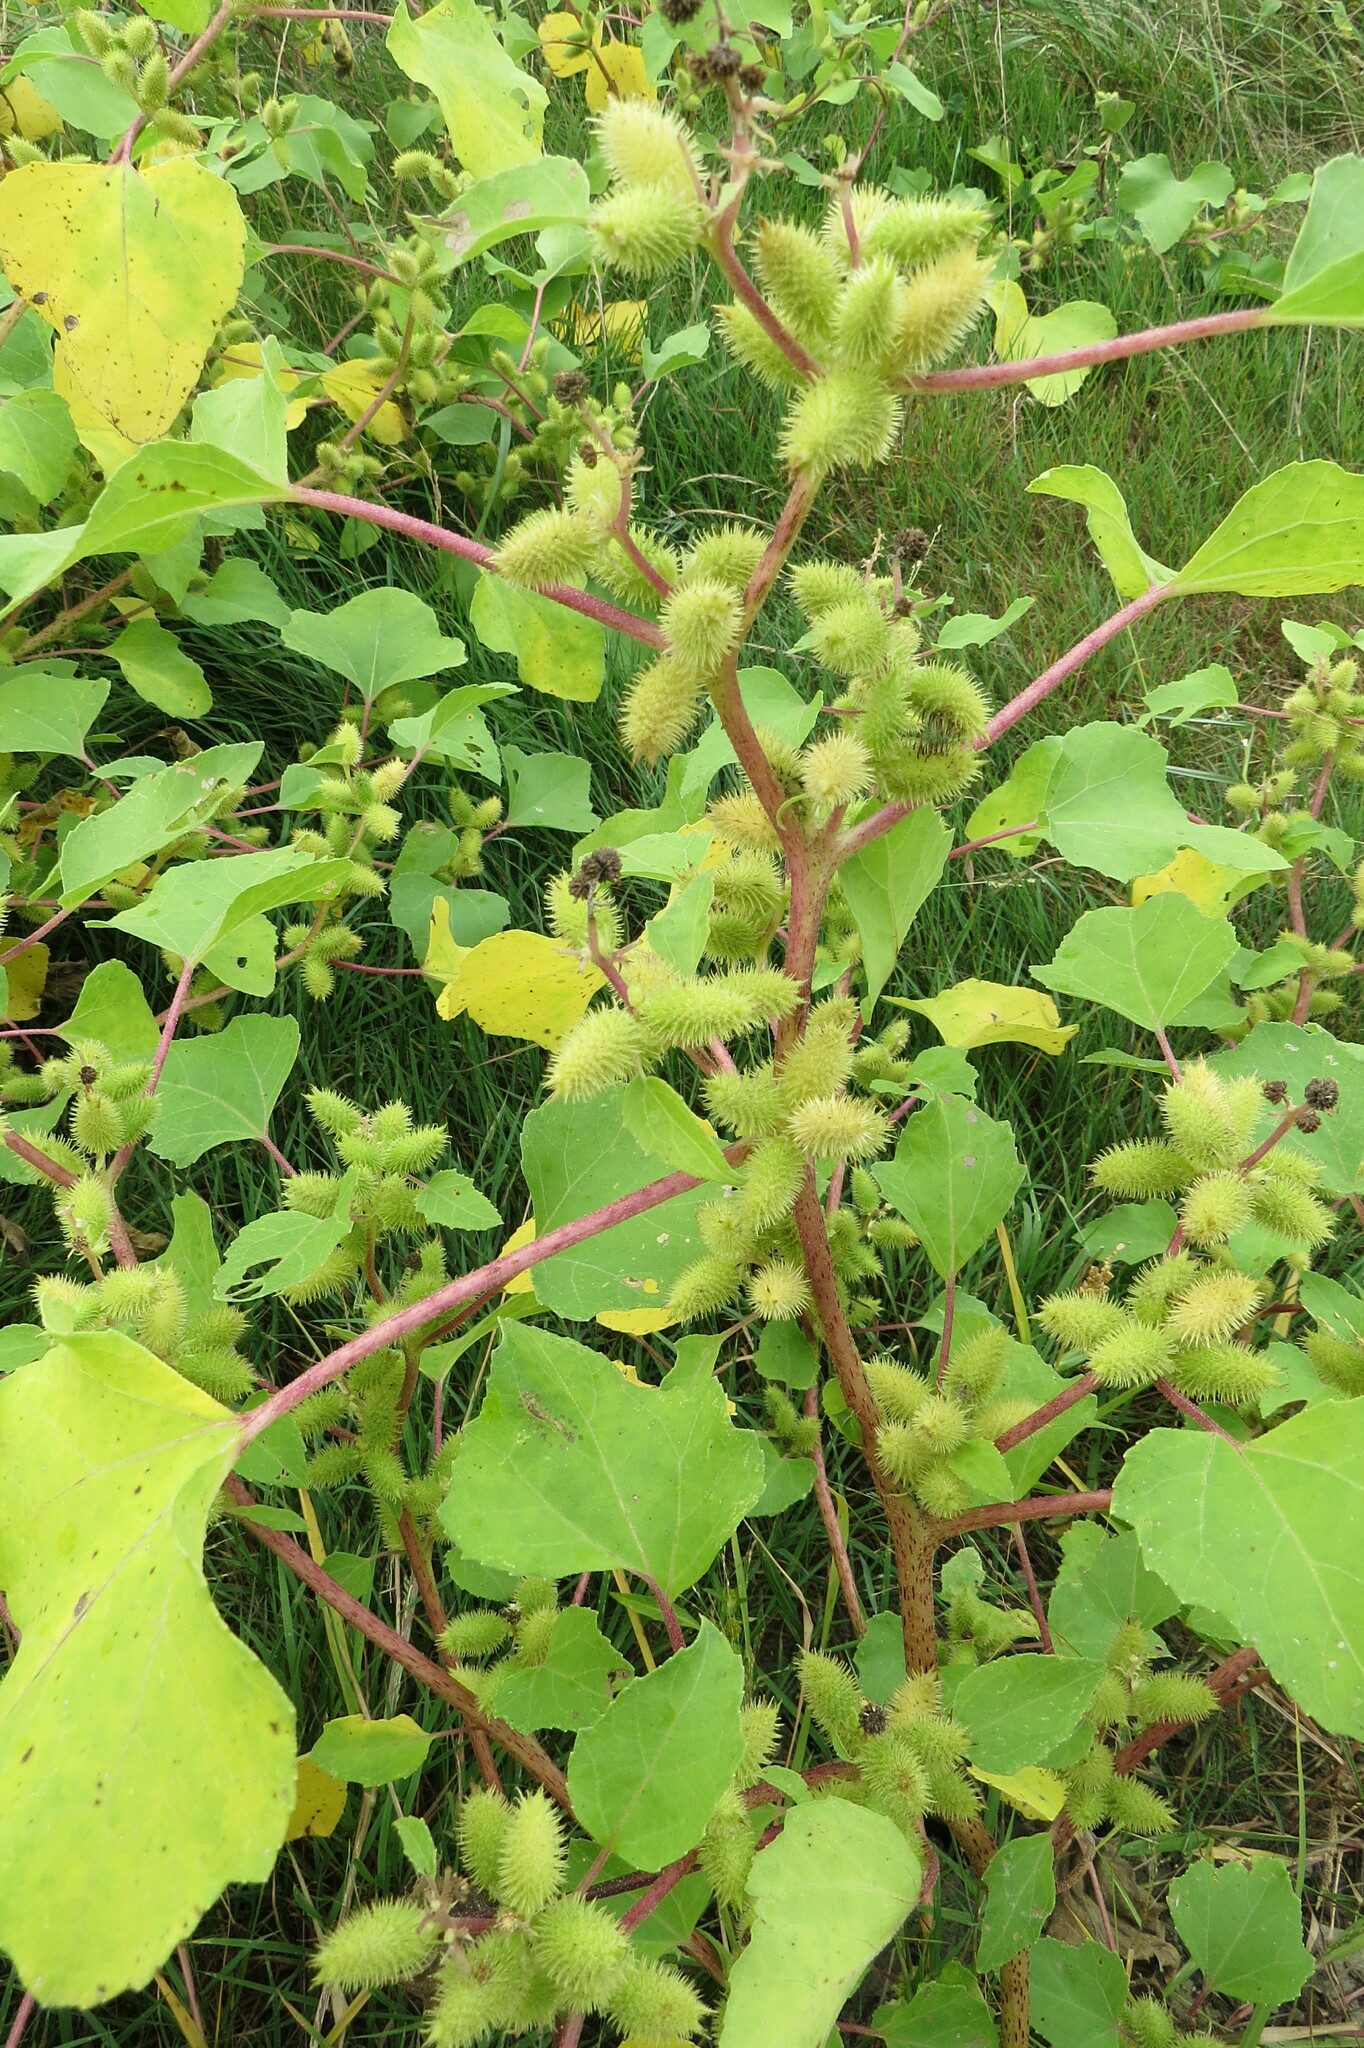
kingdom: Plantae
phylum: Tracheophyta
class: Magnoliopsida
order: Asterales
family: Asteraceae
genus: Xanthium
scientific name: Xanthium strumarium
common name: Rough cocklebur
